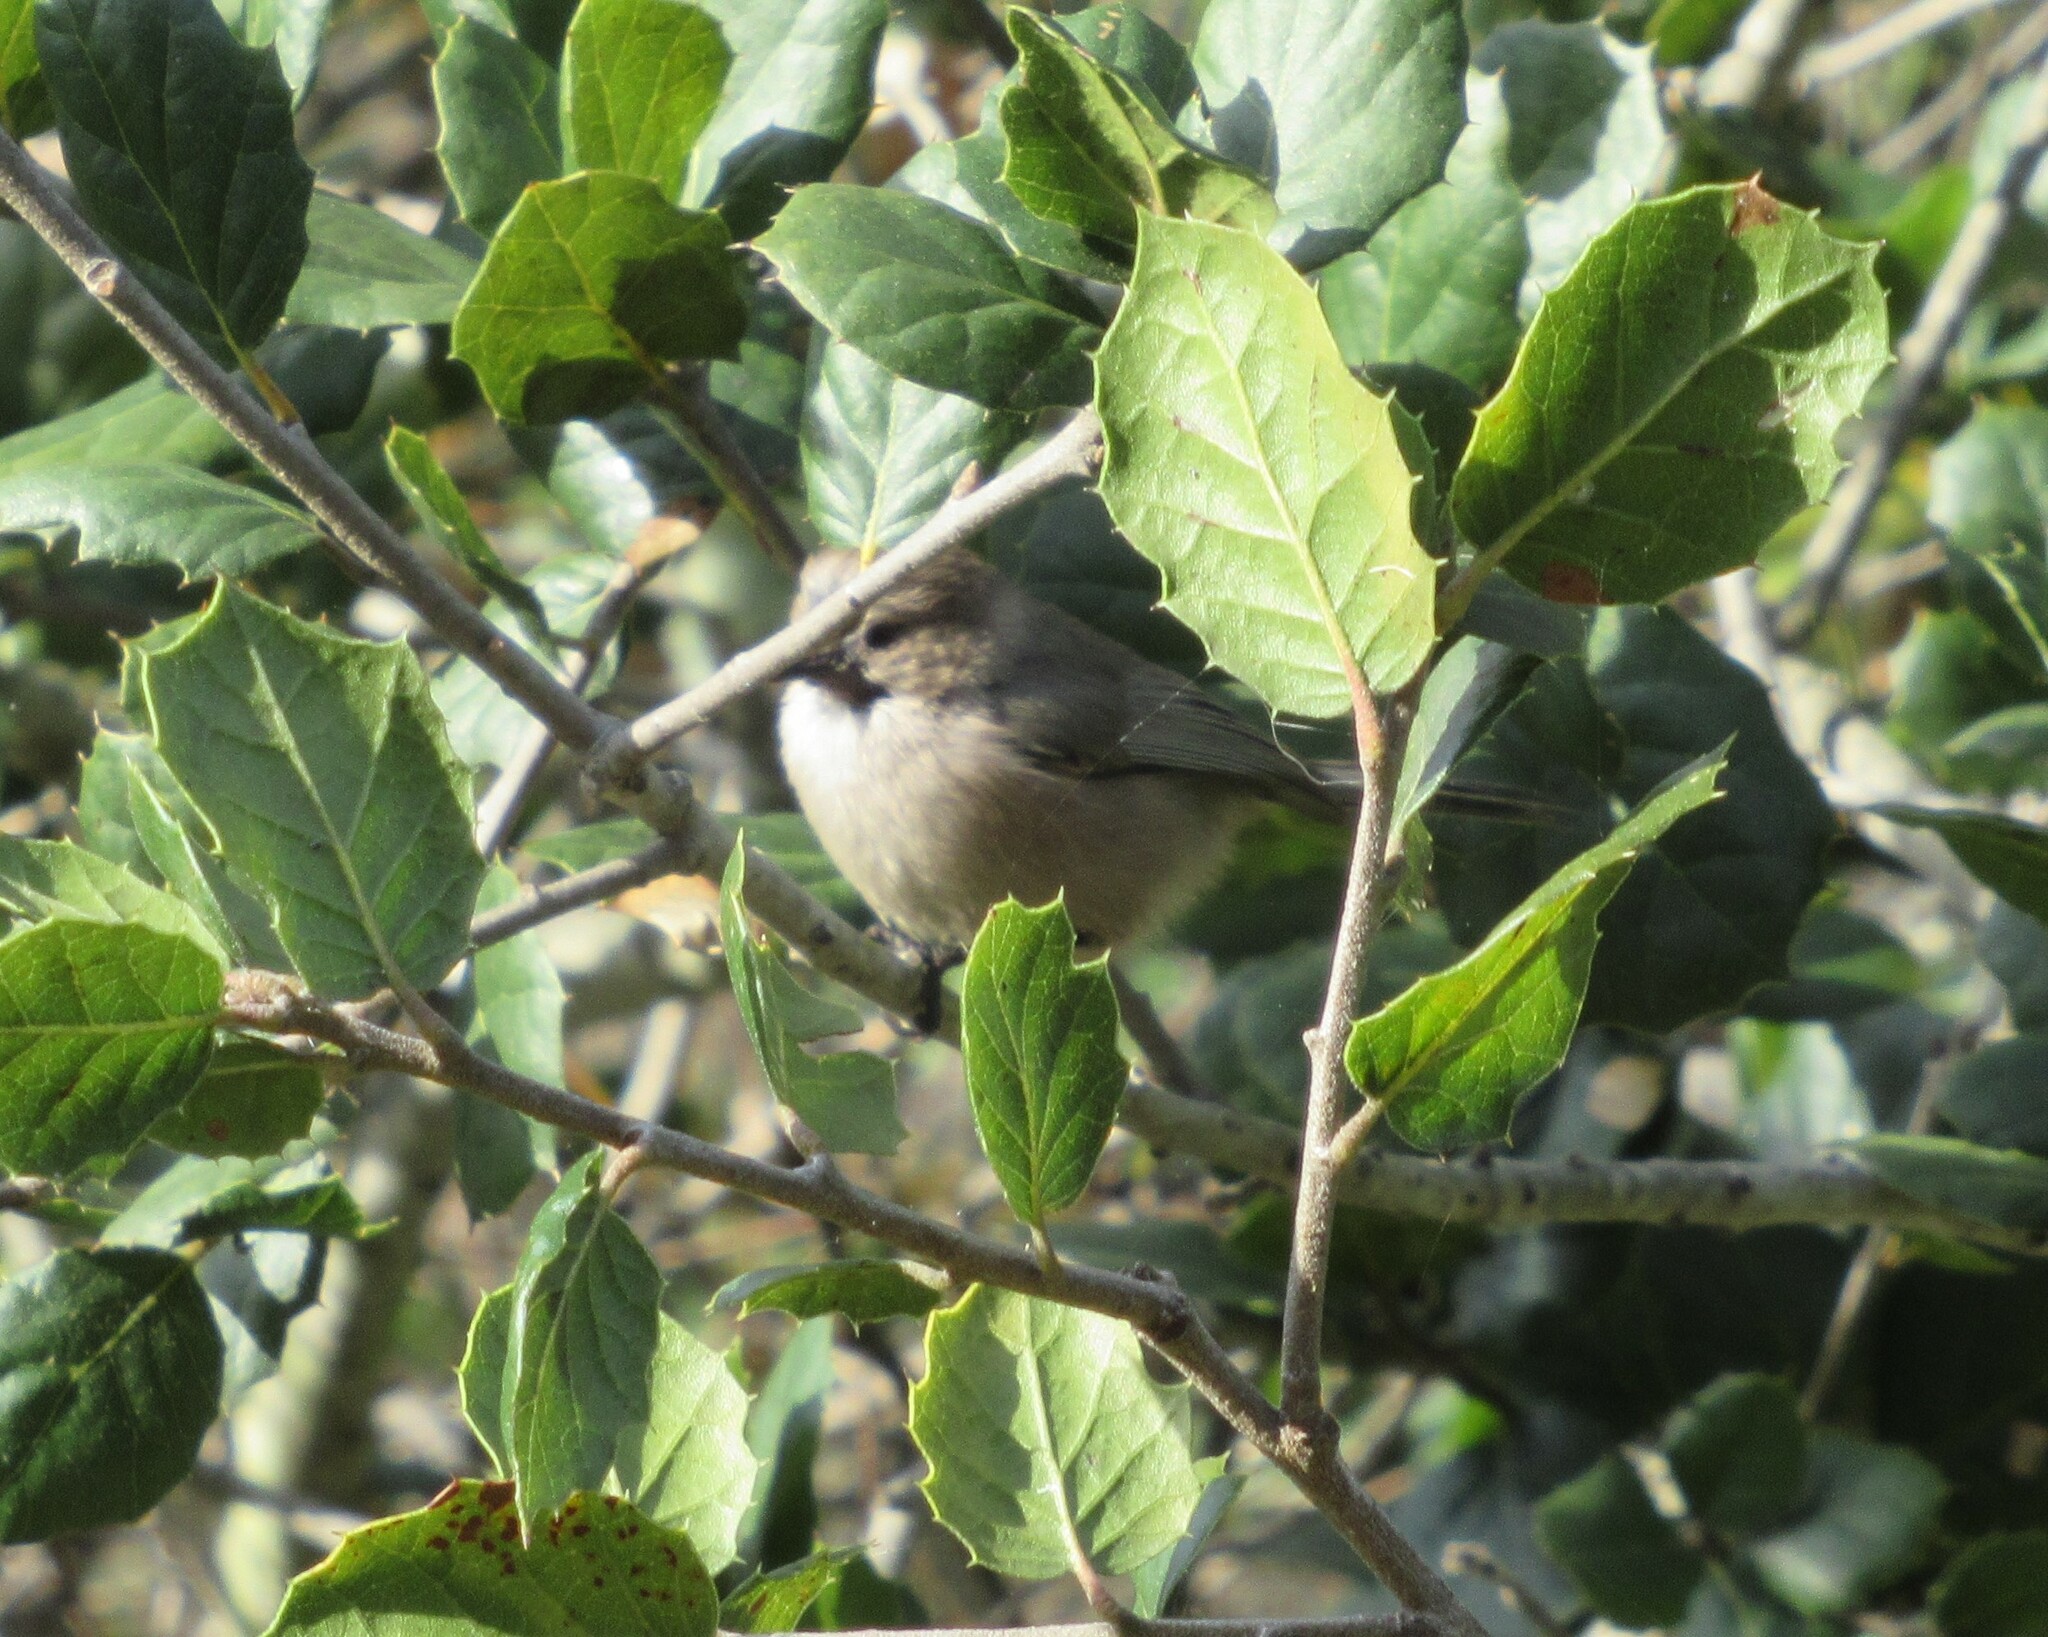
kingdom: Animalia
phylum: Chordata
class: Aves
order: Passeriformes
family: Aegithalidae
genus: Psaltriparus
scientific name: Psaltriparus minimus
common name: American bushtit
